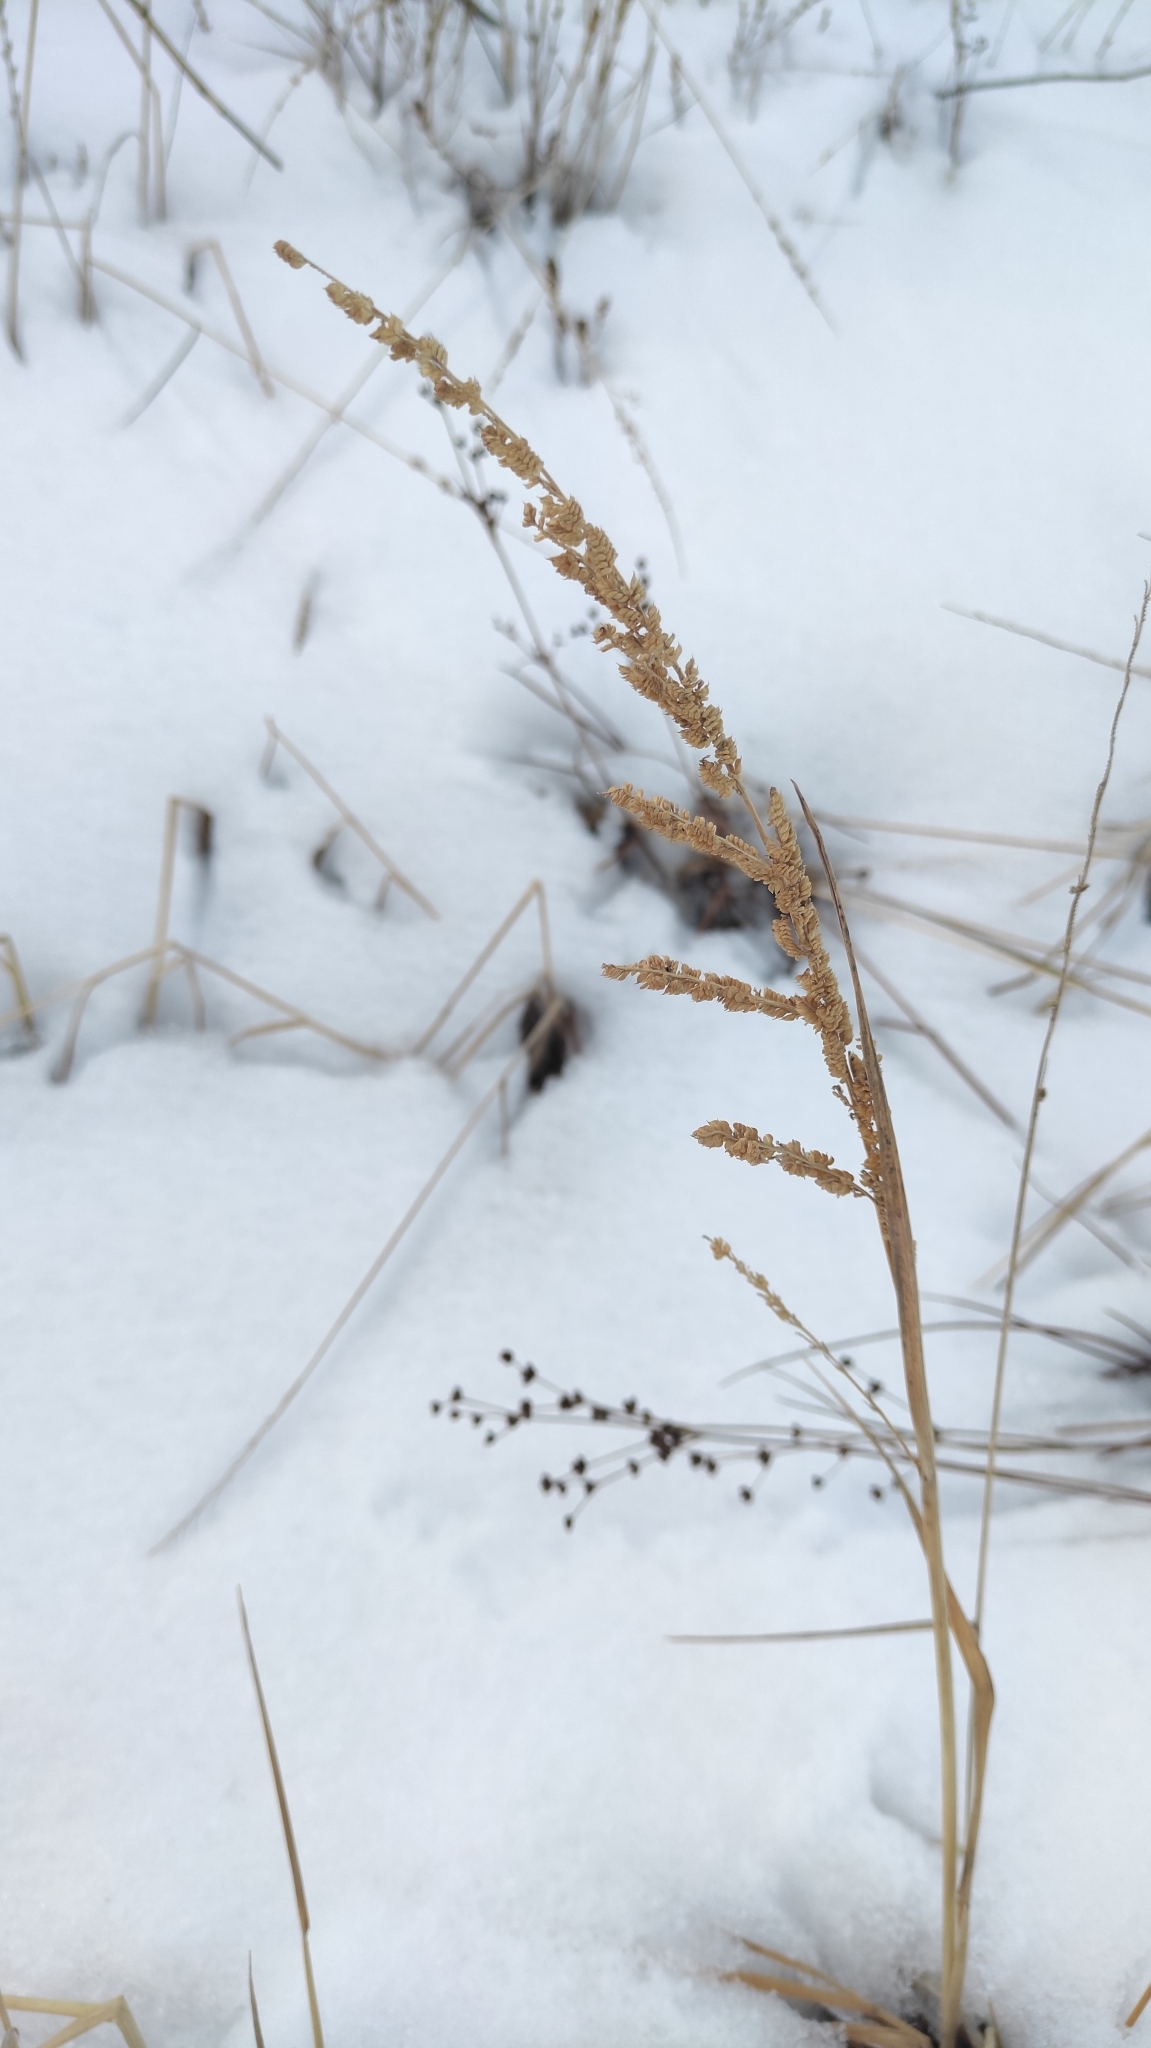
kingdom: Plantae
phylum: Tracheophyta
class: Liliopsida
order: Poales
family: Poaceae
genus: Beckmannia
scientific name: Beckmannia syzigachne
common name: American slough-grass
